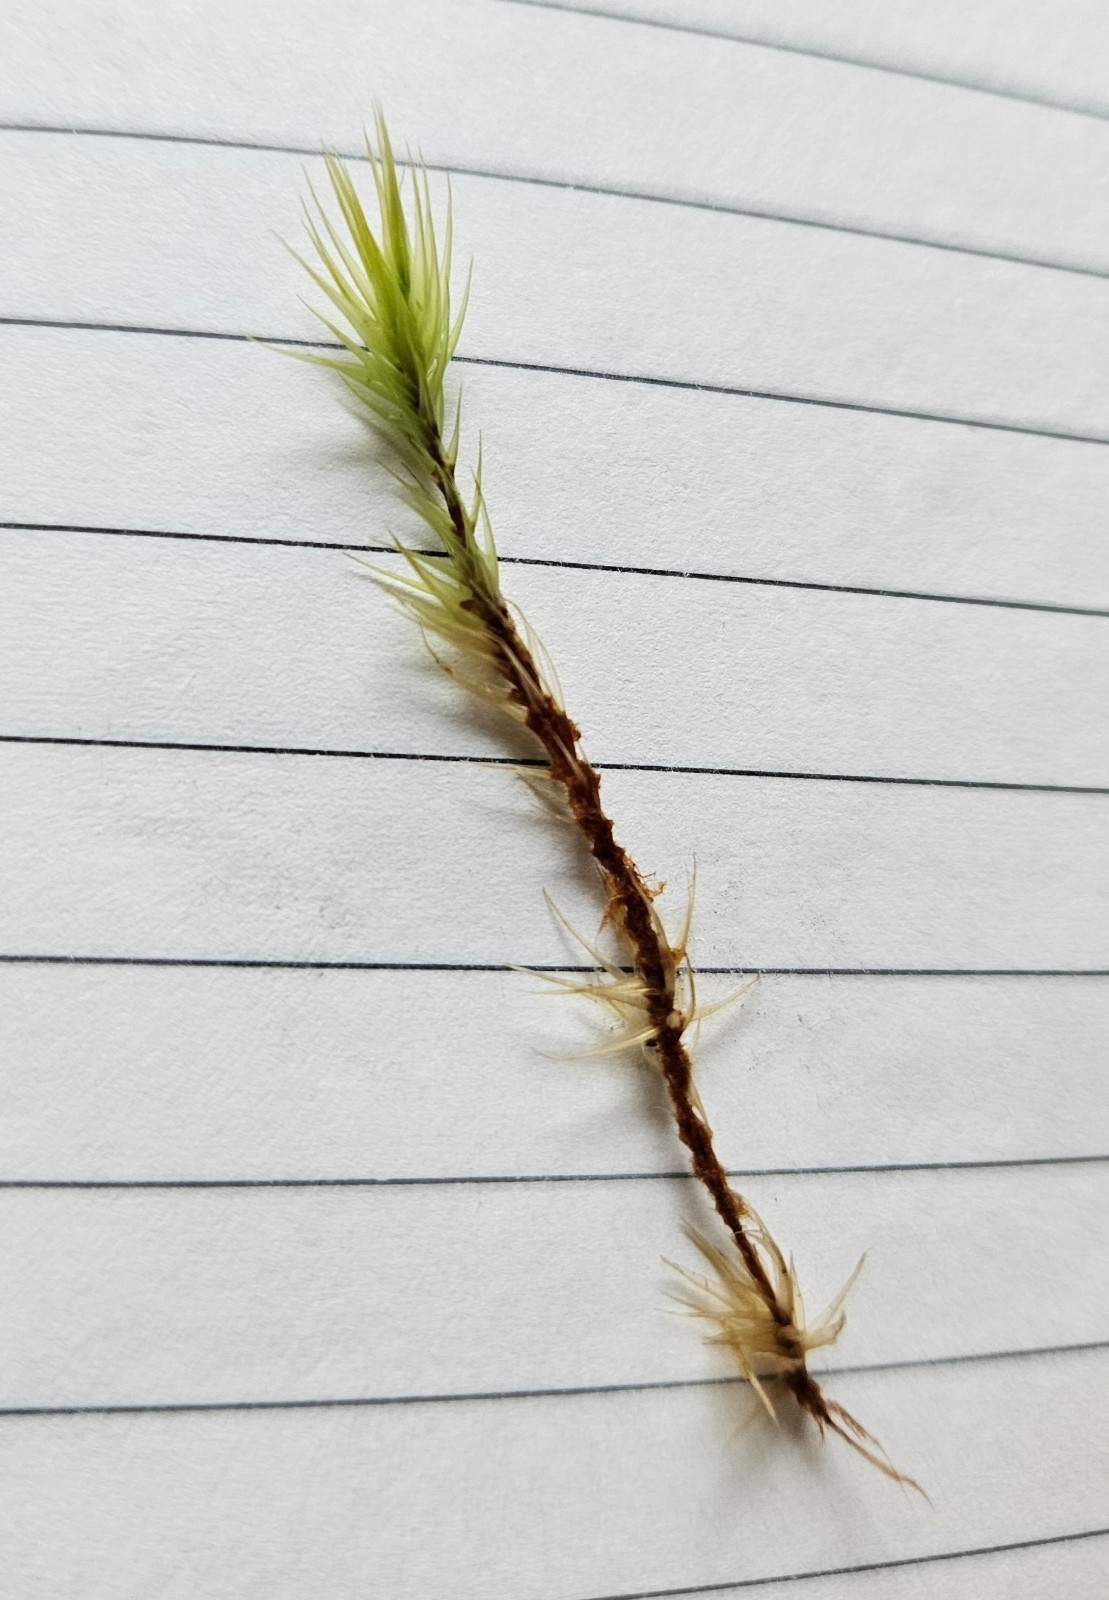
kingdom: Plantae
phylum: Bryophyta
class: Bryopsida
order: Dicranales
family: Dicranaceae
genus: Dicranum
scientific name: Dicranum scoparium
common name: Broom fork-moss
